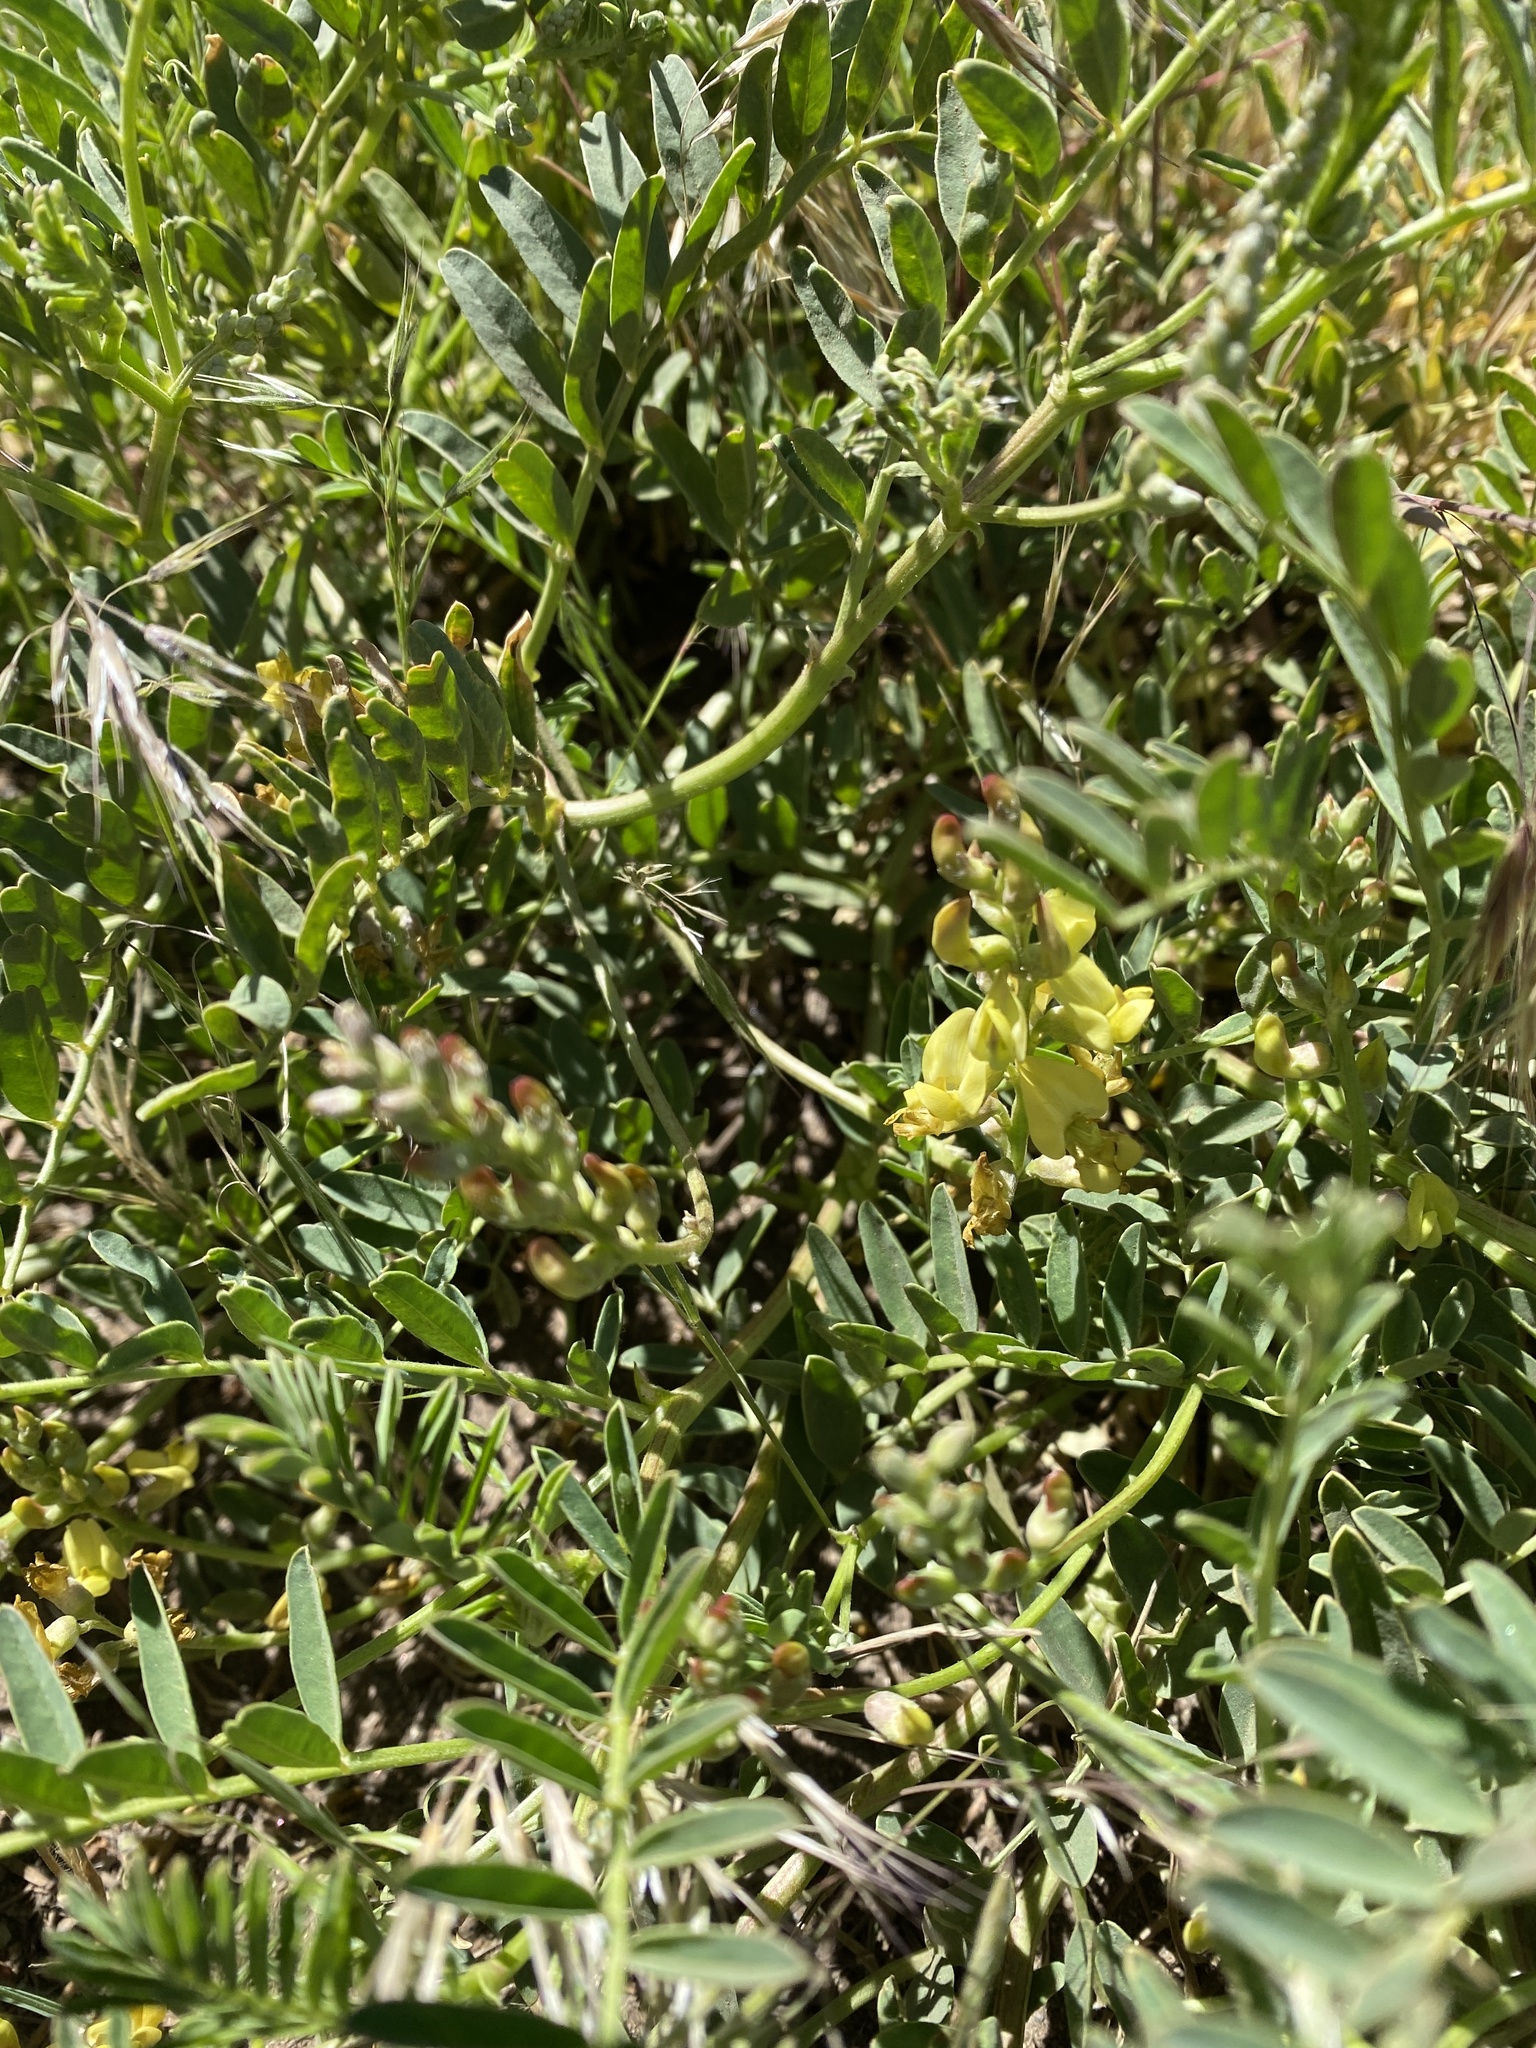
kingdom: Plantae
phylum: Tracheophyta
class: Magnoliopsida
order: Fabales
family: Fabaceae
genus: Astragalus
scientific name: Astragalus douglasii
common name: Jacumba milkvetch
